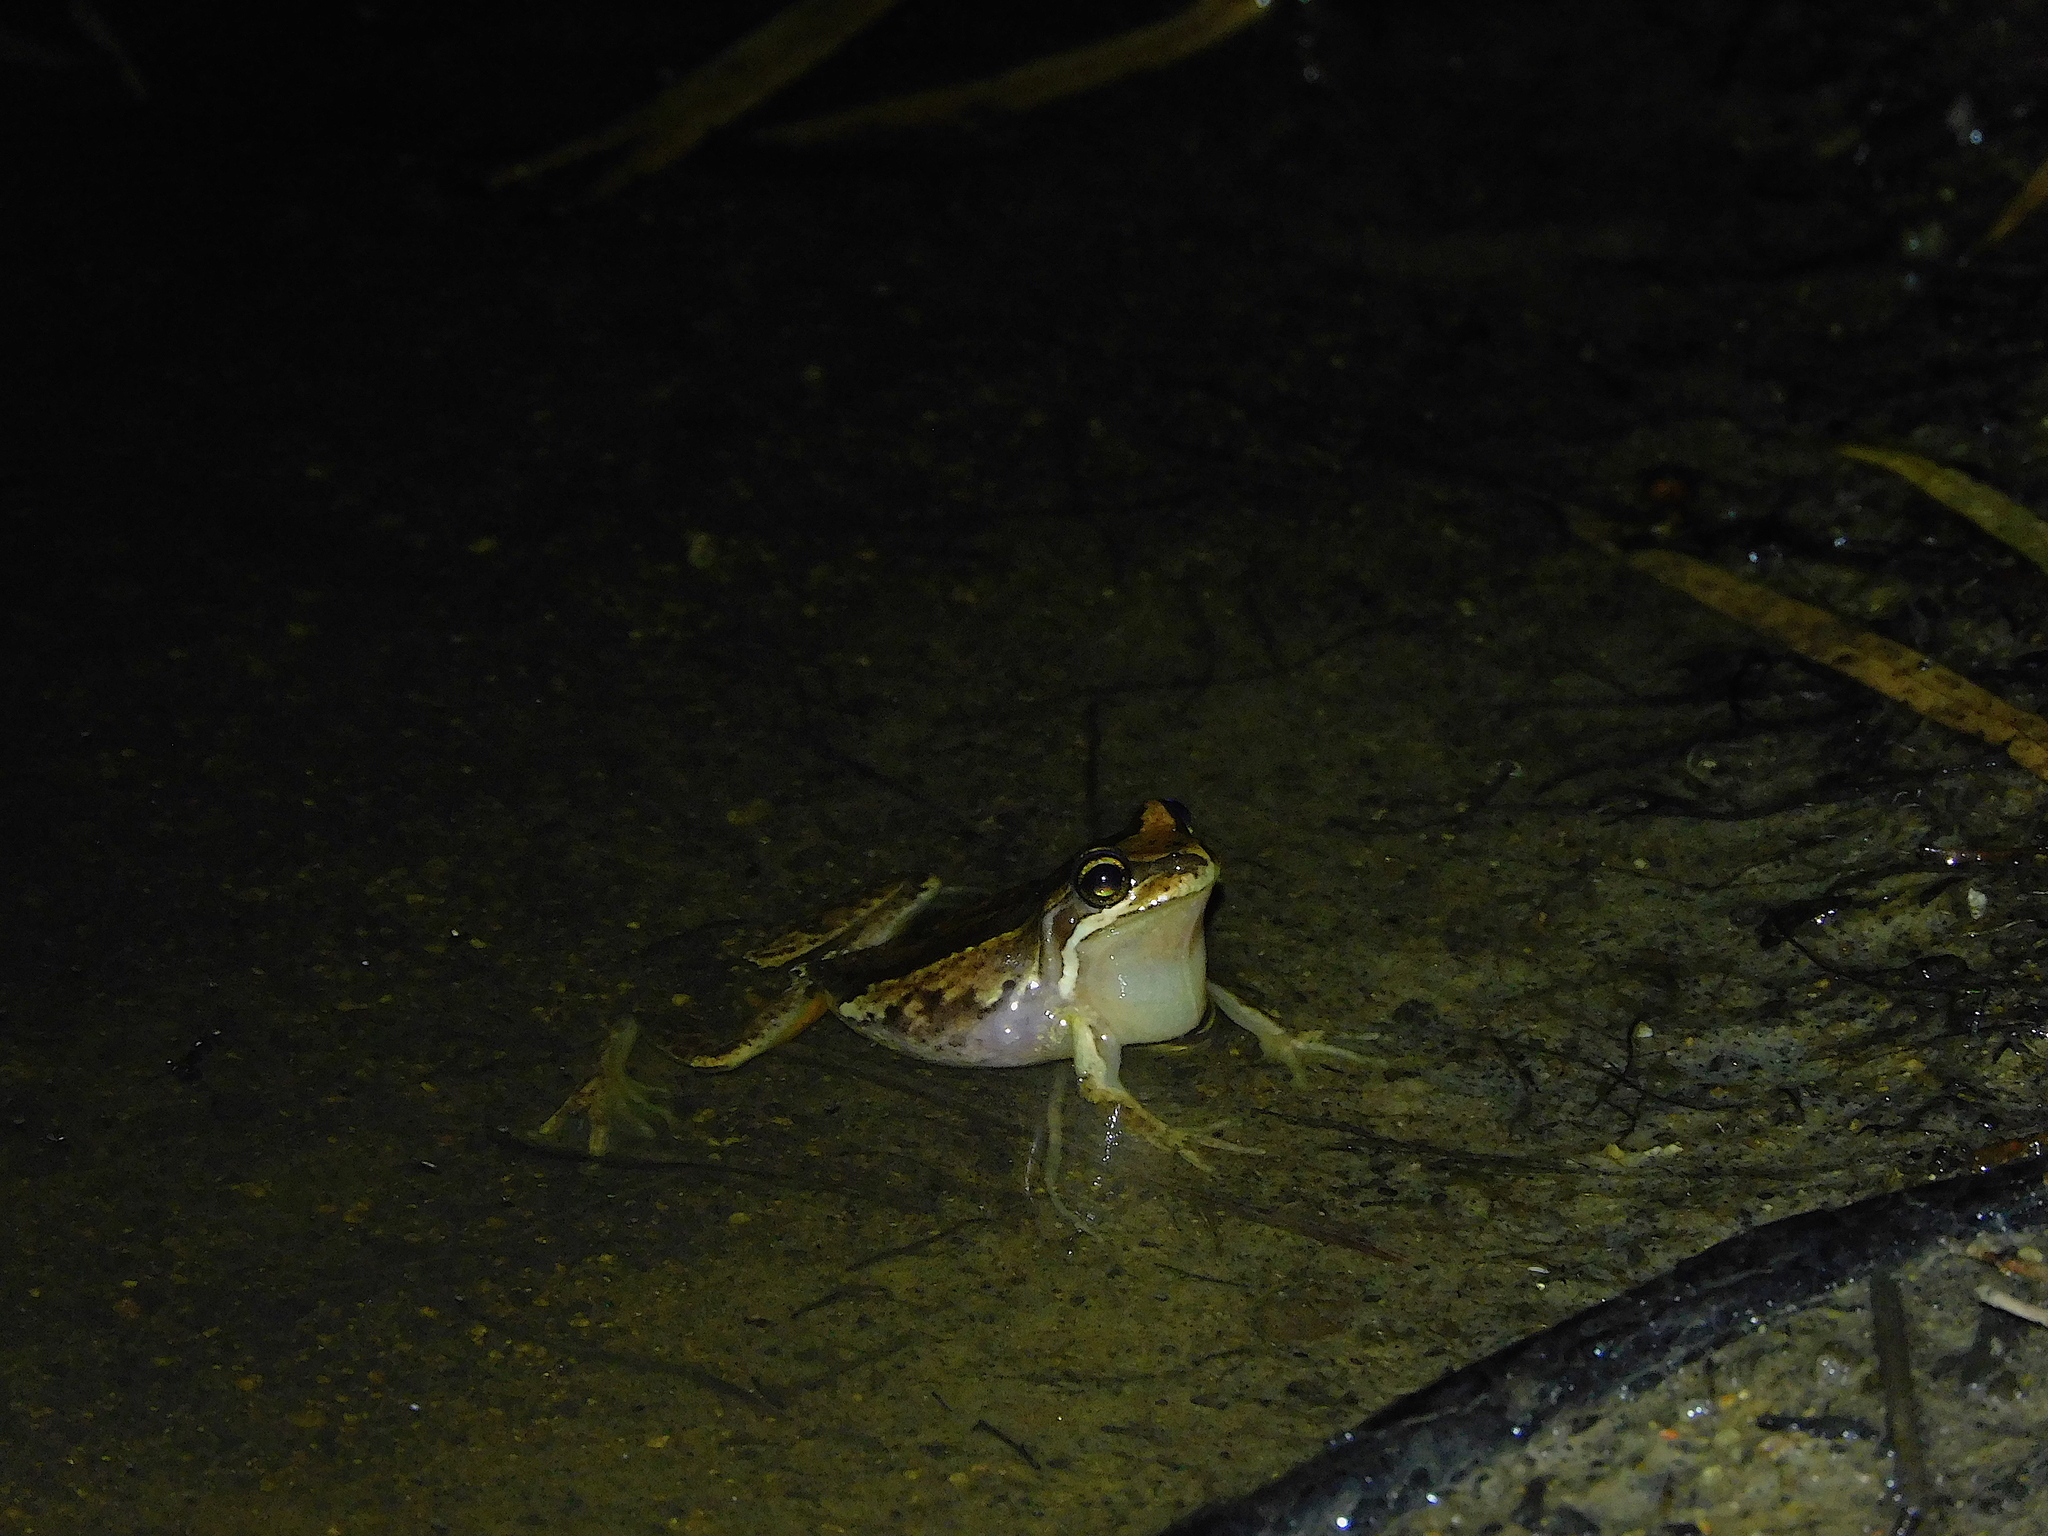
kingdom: Animalia
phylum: Chordata
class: Amphibia
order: Anura
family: Pelodryadidae
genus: Litoria
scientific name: Litoria ewingii
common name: Southern brown tree frog
